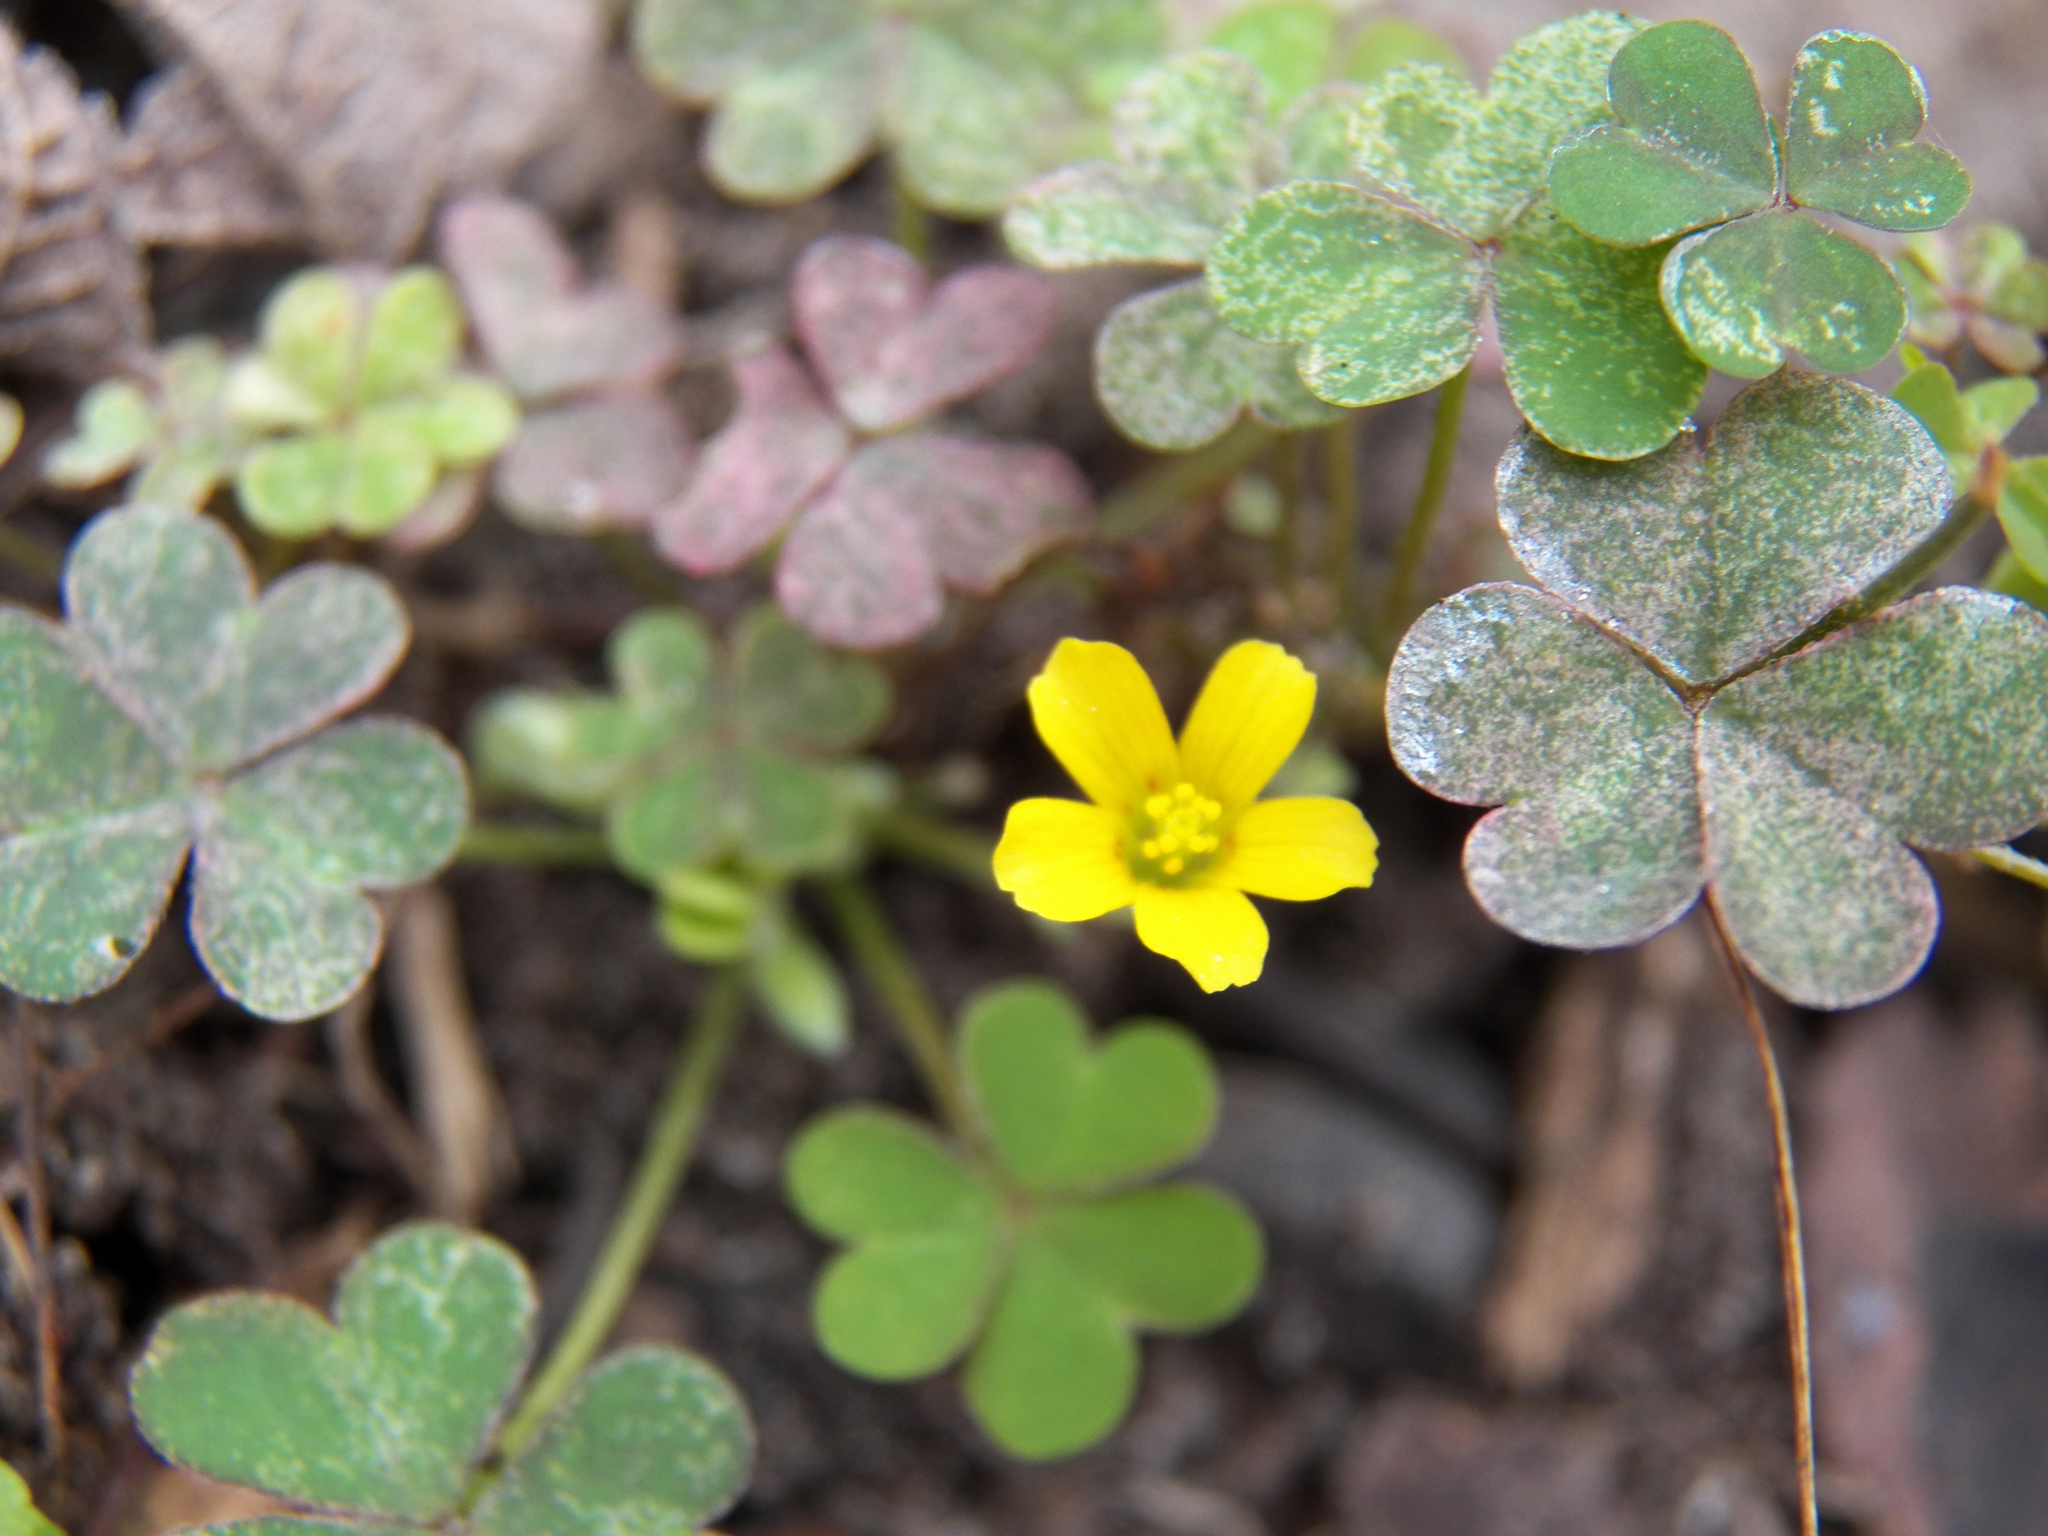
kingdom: Plantae
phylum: Tracheophyta
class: Magnoliopsida
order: Oxalidales
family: Oxalidaceae
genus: Oxalis
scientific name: Oxalis corniculata
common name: Procumbent yellow-sorrel
